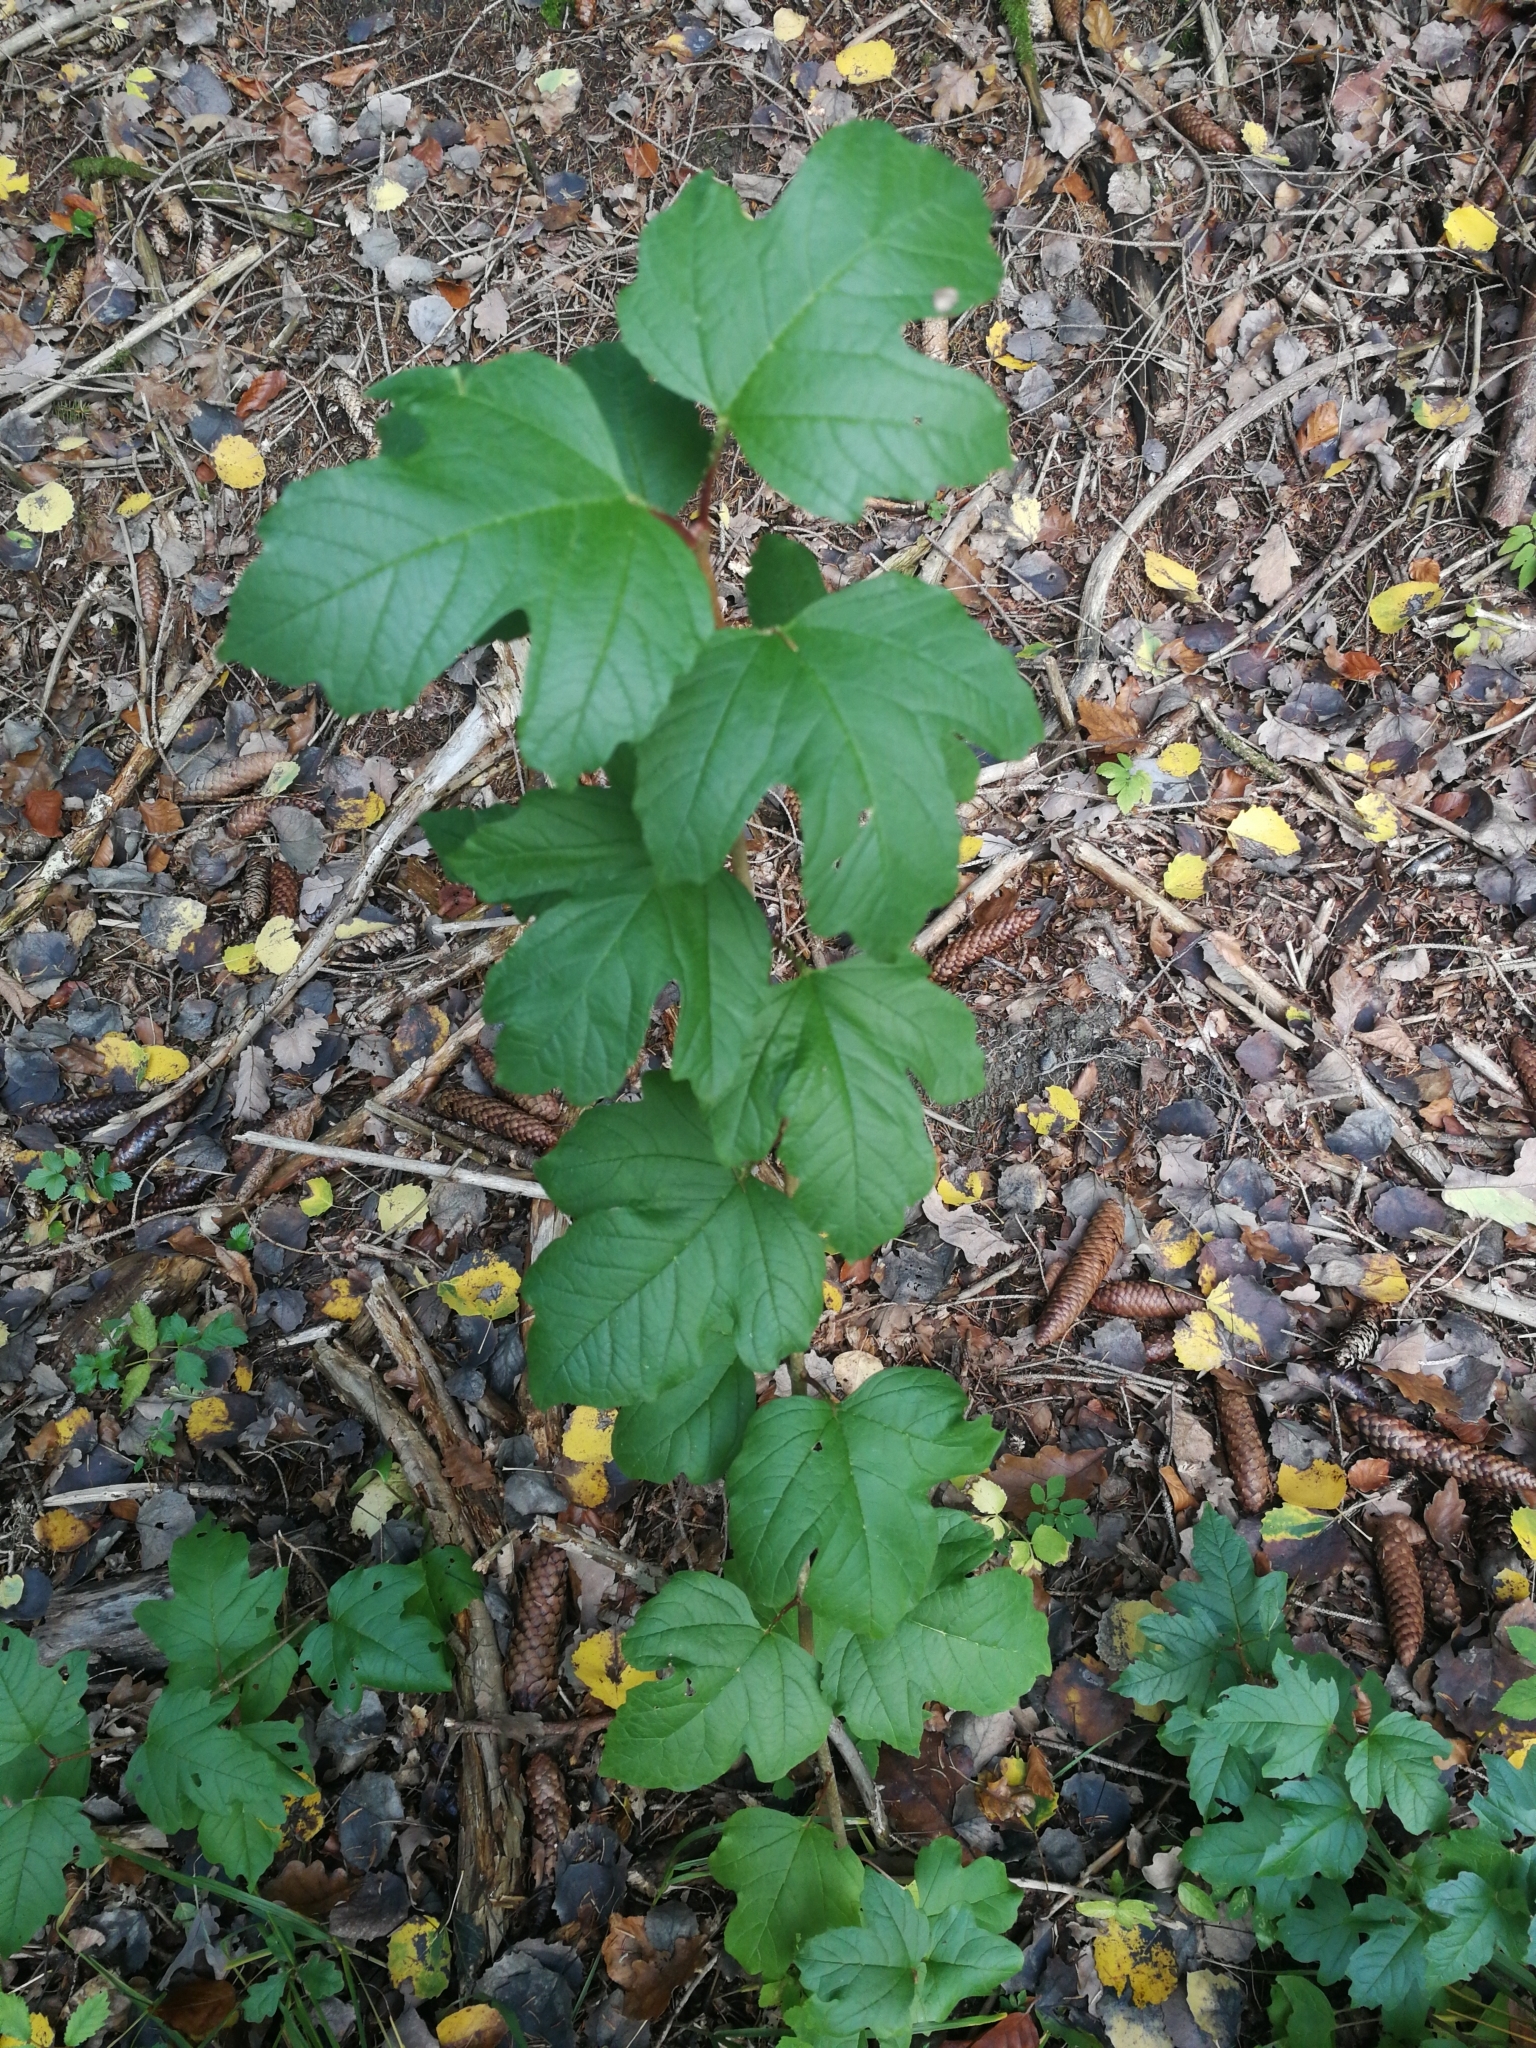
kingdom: Plantae
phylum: Tracheophyta
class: Magnoliopsida
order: Dipsacales
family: Viburnaceae
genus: Viburnum
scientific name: Viburnum opulus
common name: Guelder-rose
